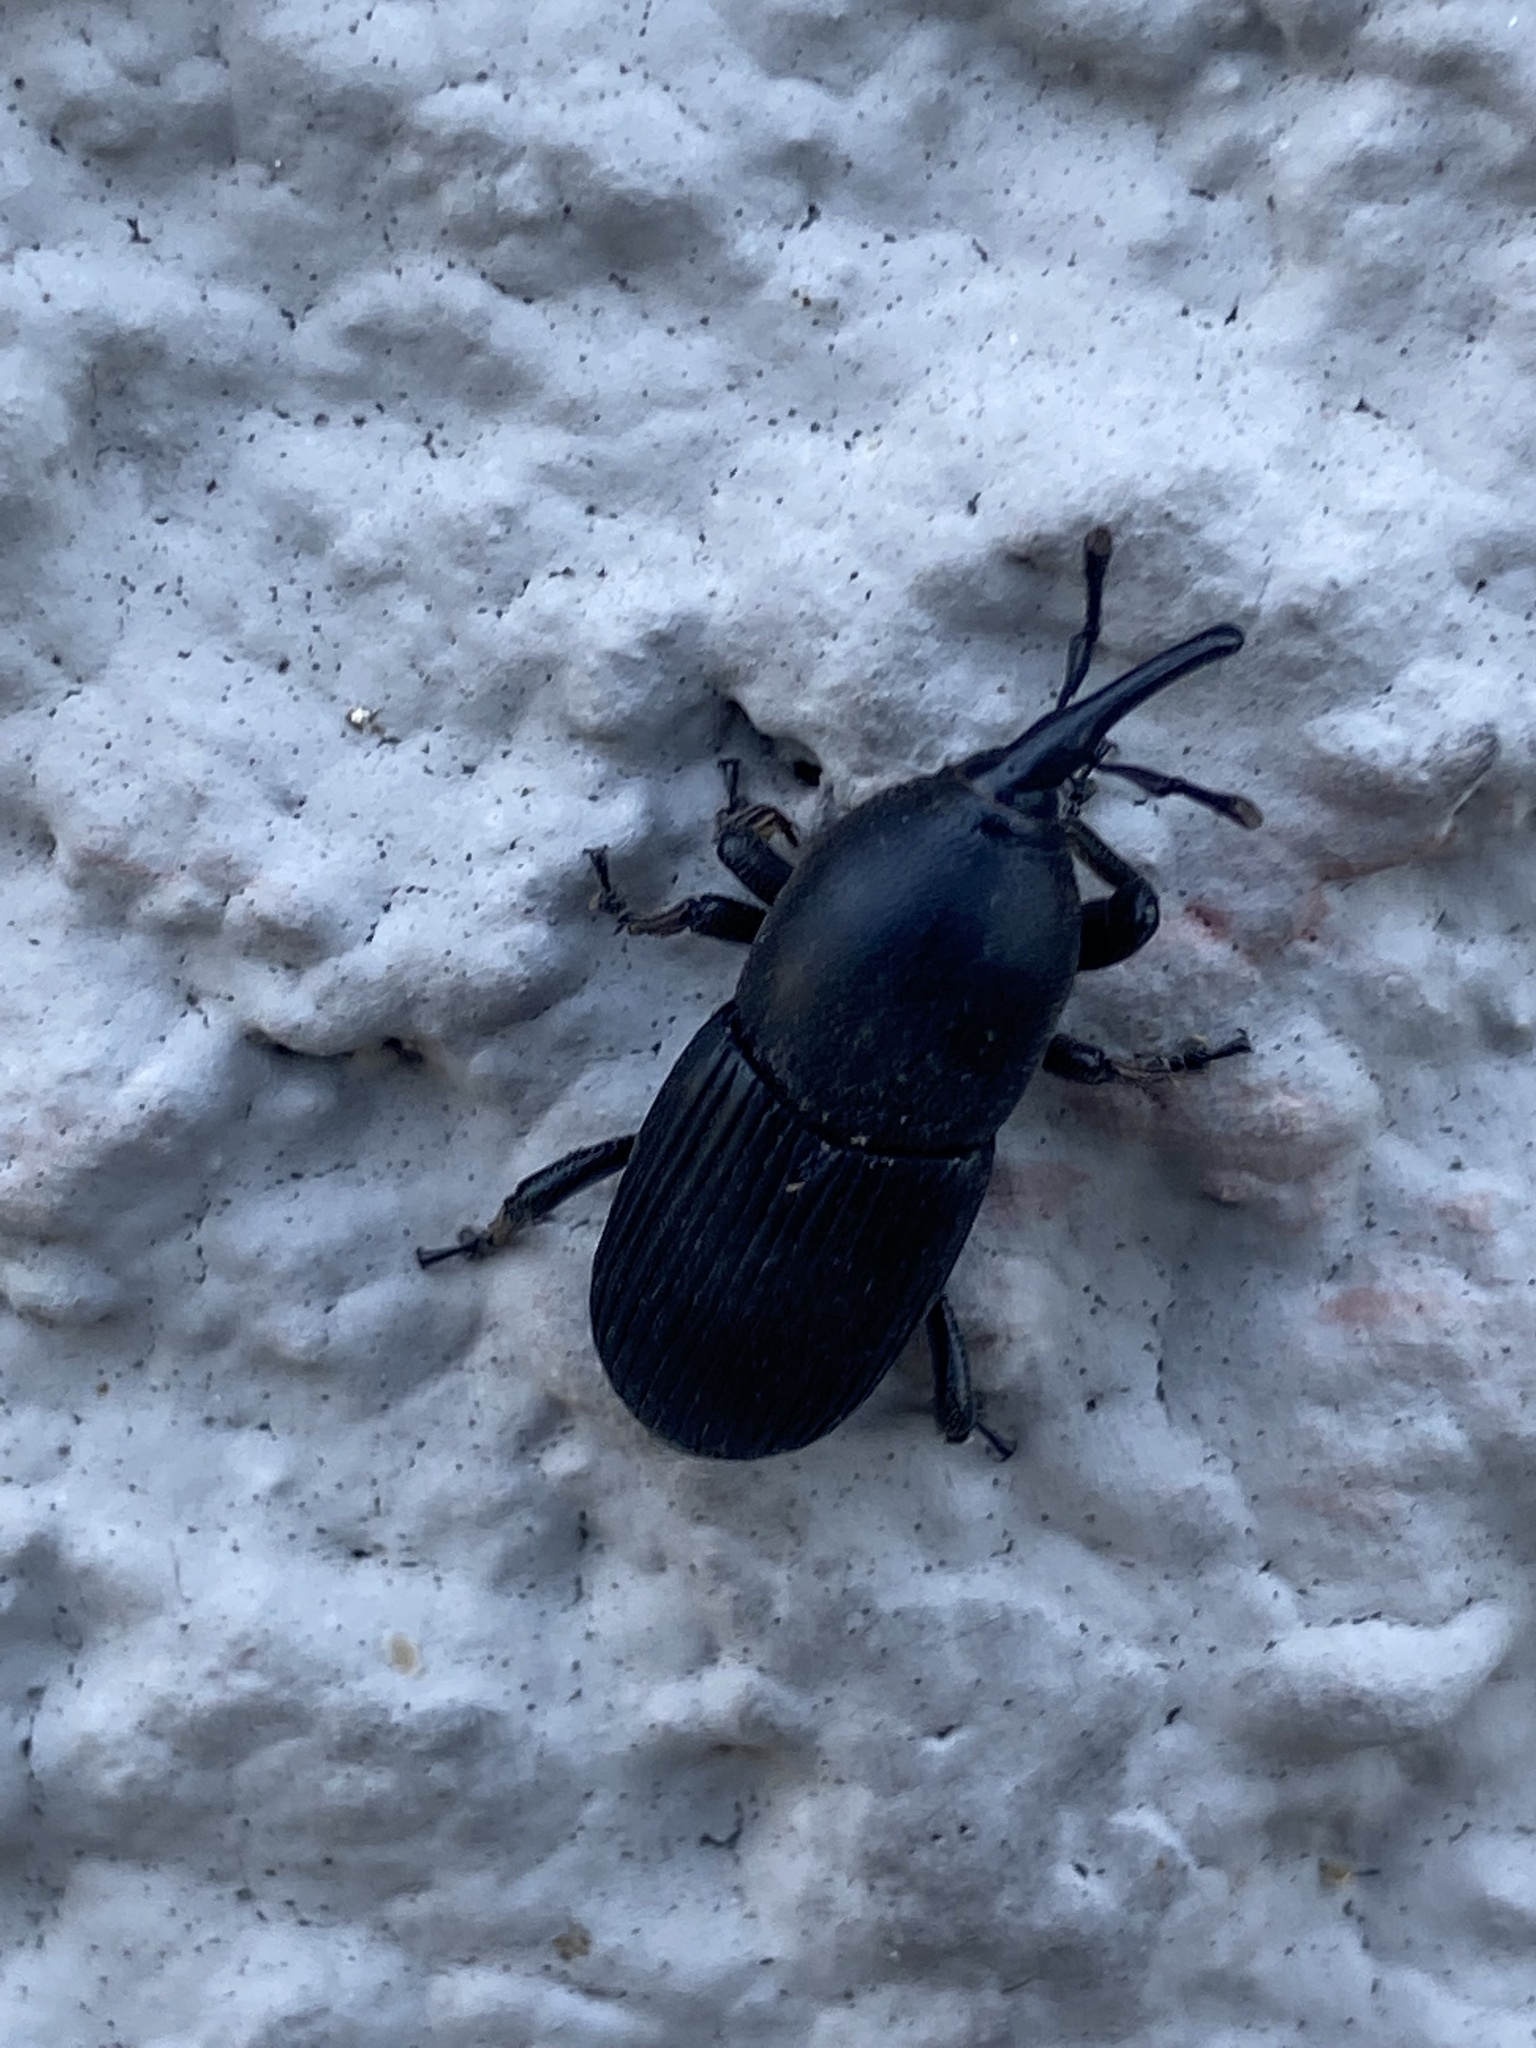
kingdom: Animalia
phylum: Arthropoda
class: Insecta
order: Coleoptera
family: Dryophthoridae
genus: Scyphophorus
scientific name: Scyphophorus acupunctatus
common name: Weevil
